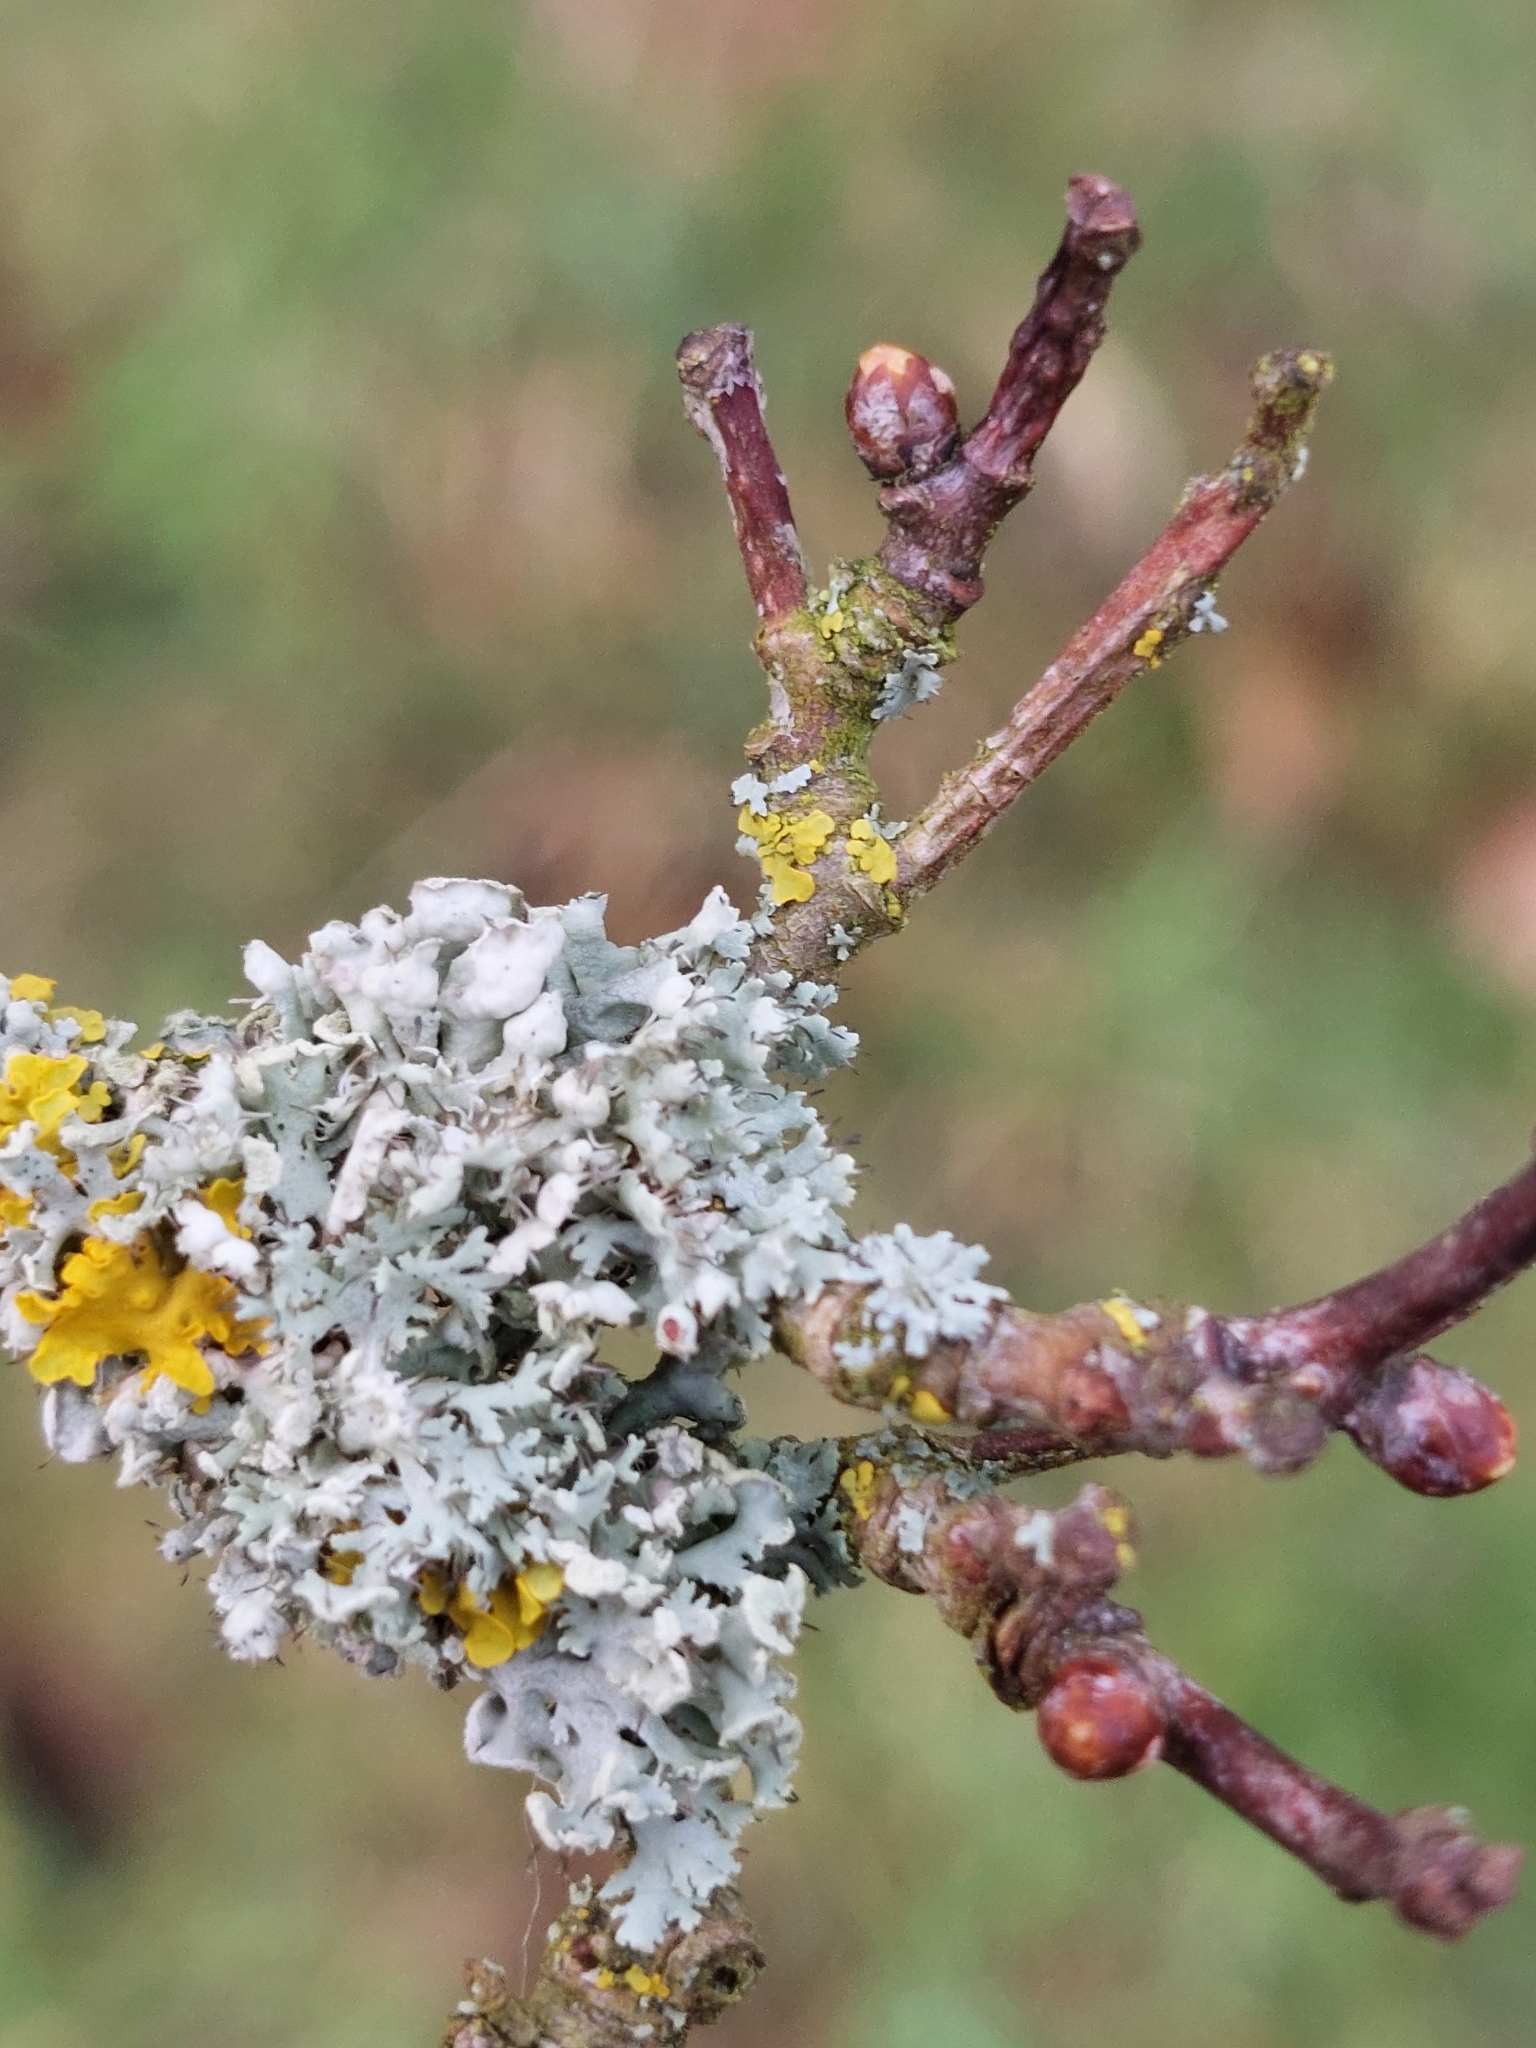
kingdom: Fungi
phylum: Ascomycota
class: Lecanoromycetes
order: Caliciales
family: Physciaceae
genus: Physcia
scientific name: Physcia adscendens
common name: Hooded rosette lichen
